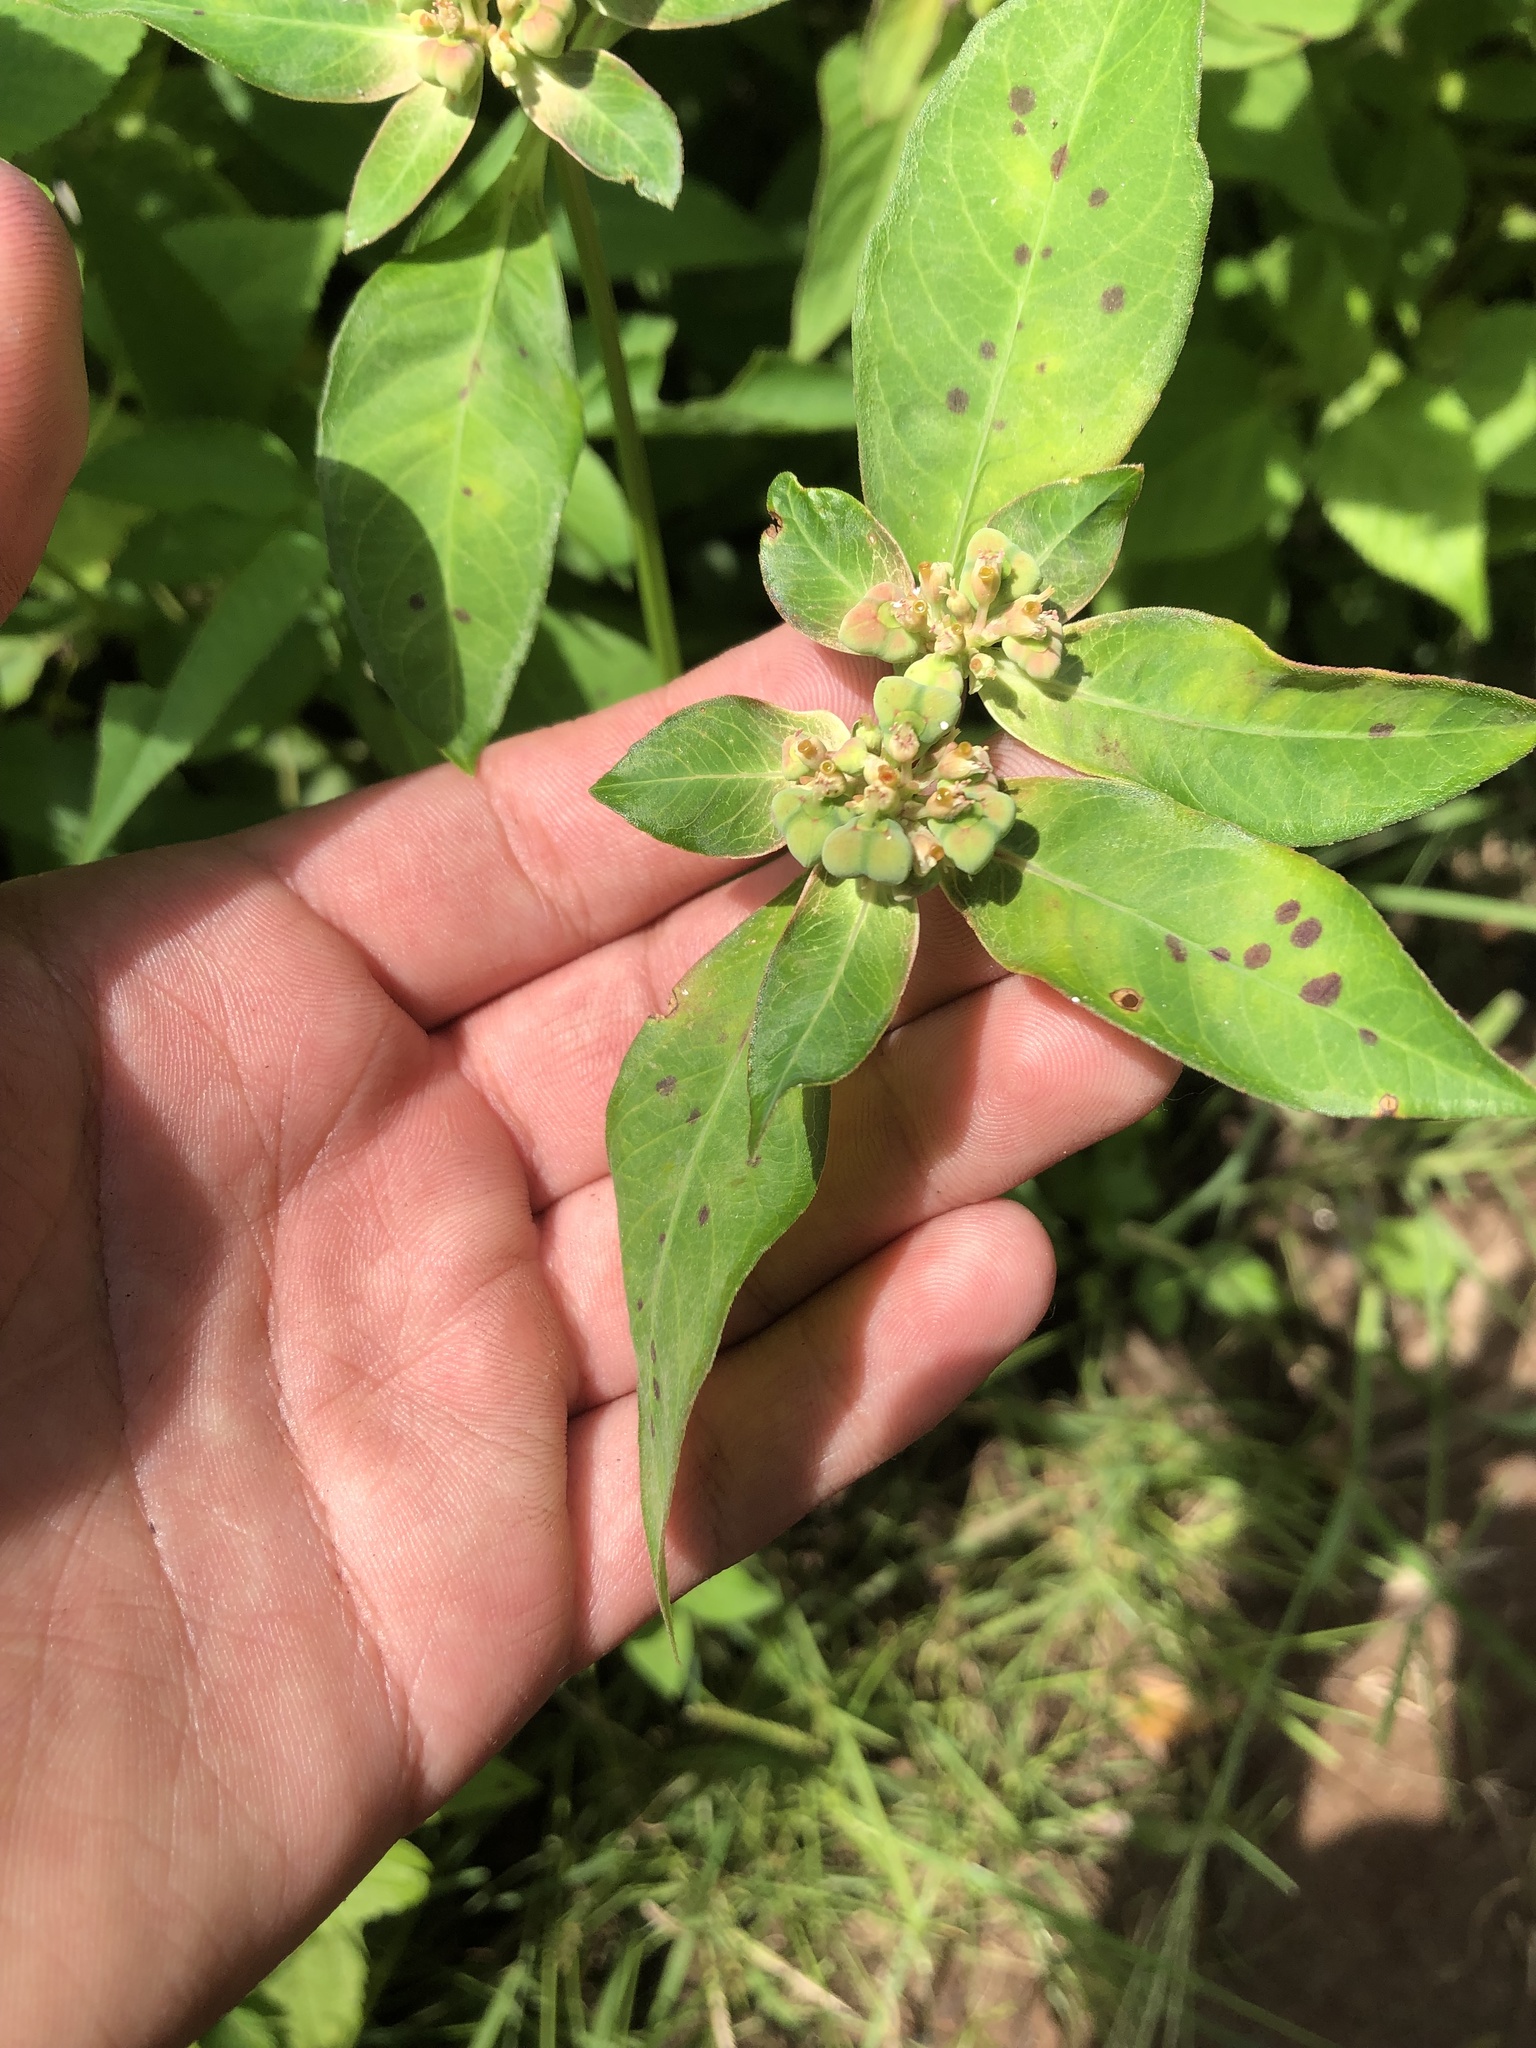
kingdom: Plantae
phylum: Tracheophyta
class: Magnoliopsida
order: Malpighiales
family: Euphorbiaceae
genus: Euphorbia
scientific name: Euphorbia heterophylla
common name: Mexican fireplant
